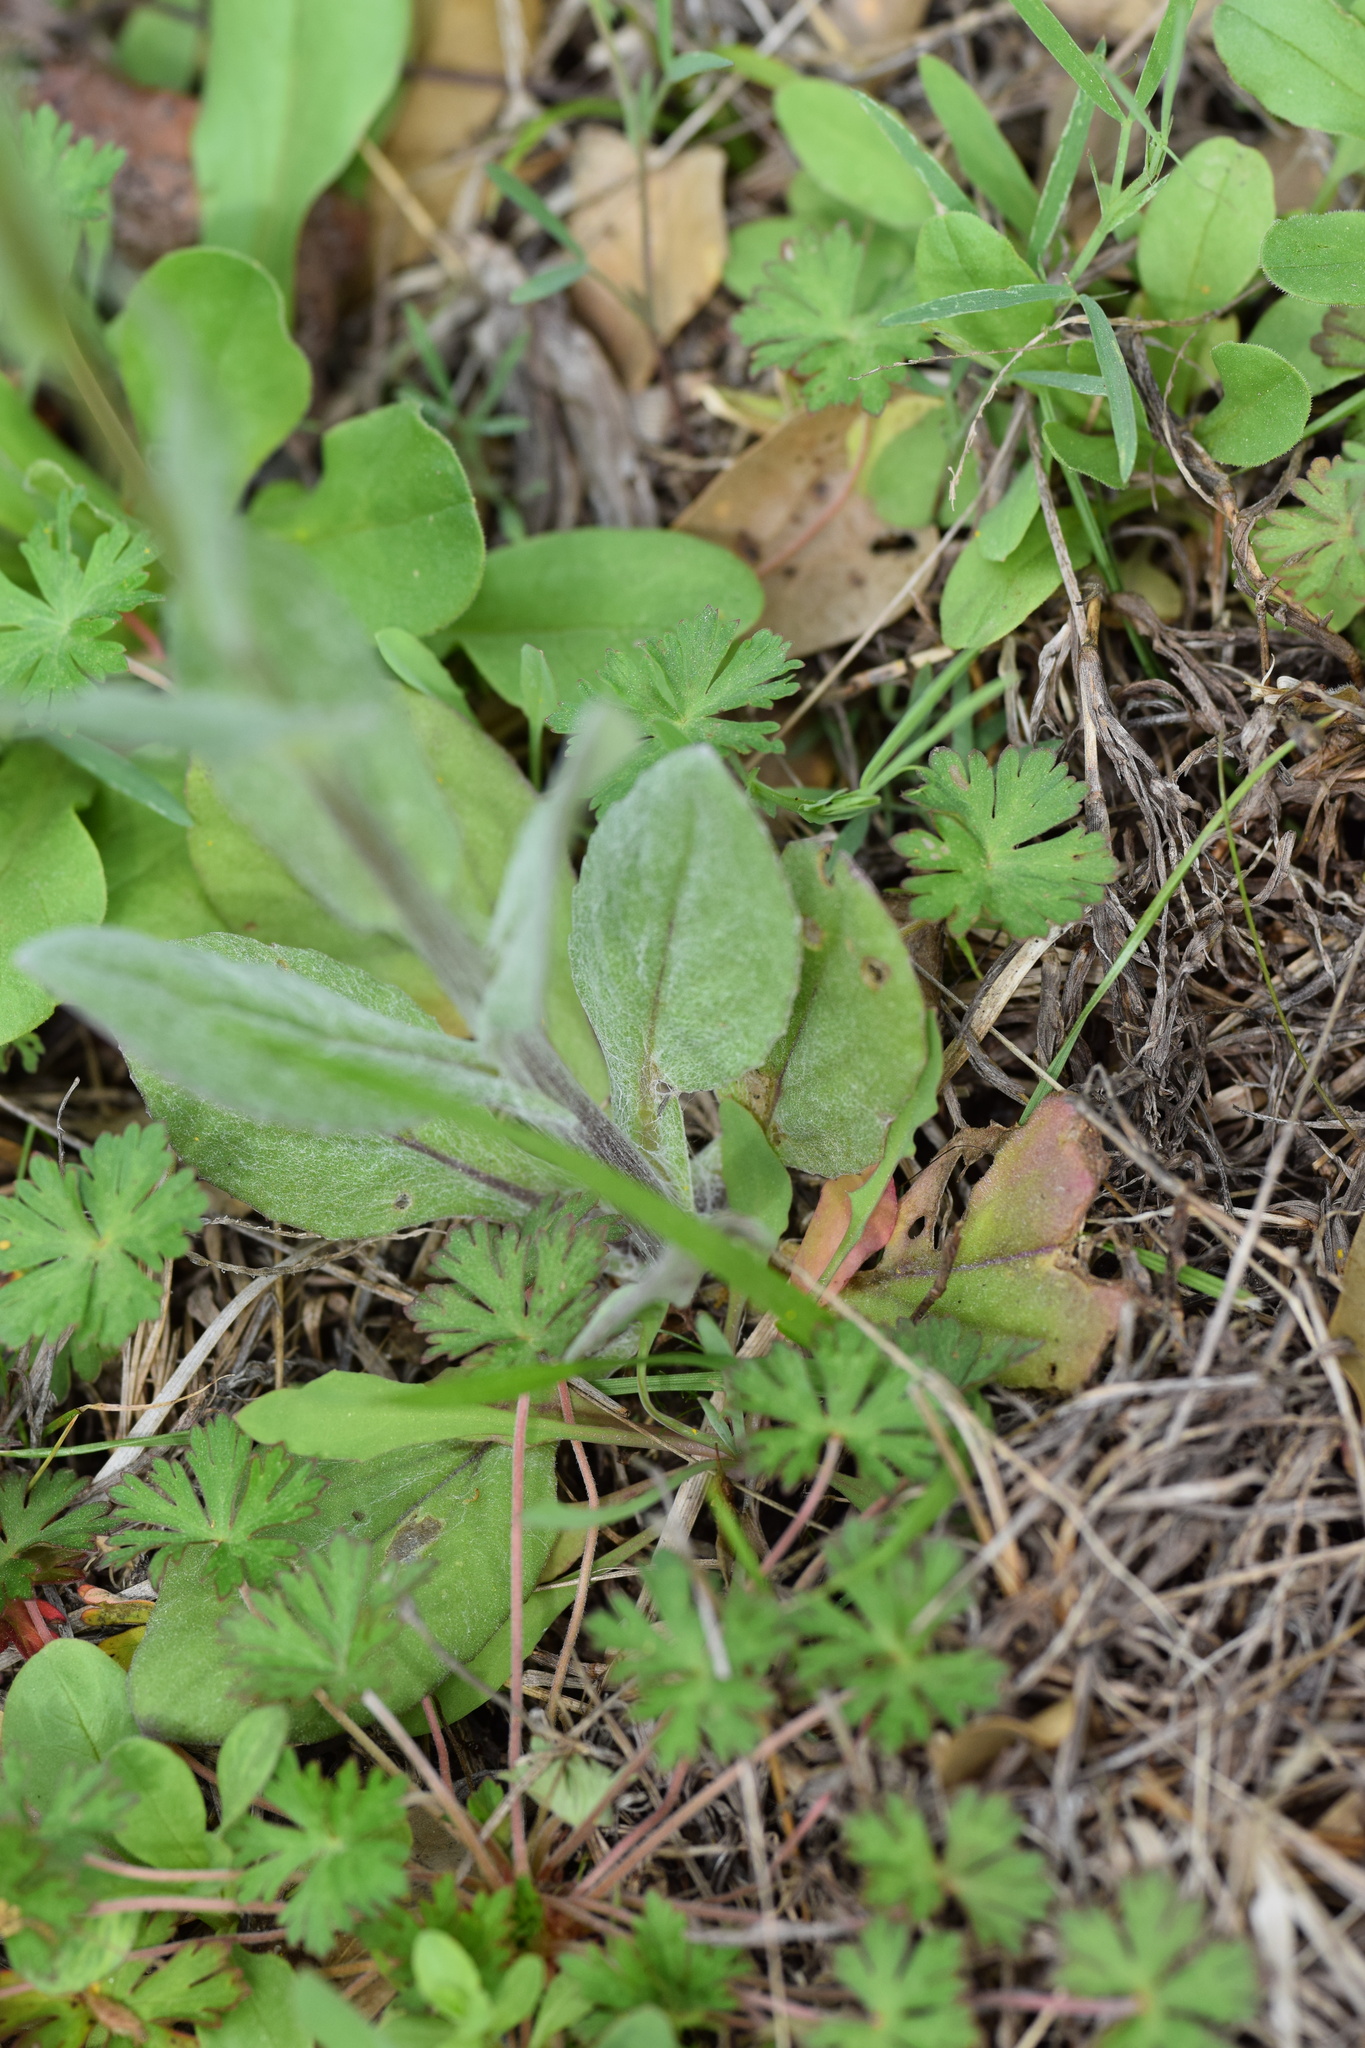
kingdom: Plantae
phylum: Tracheophyta
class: Magnoliopsida
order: Asterales
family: Asteraceae
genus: Senecio
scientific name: Senecio ampullaceus
